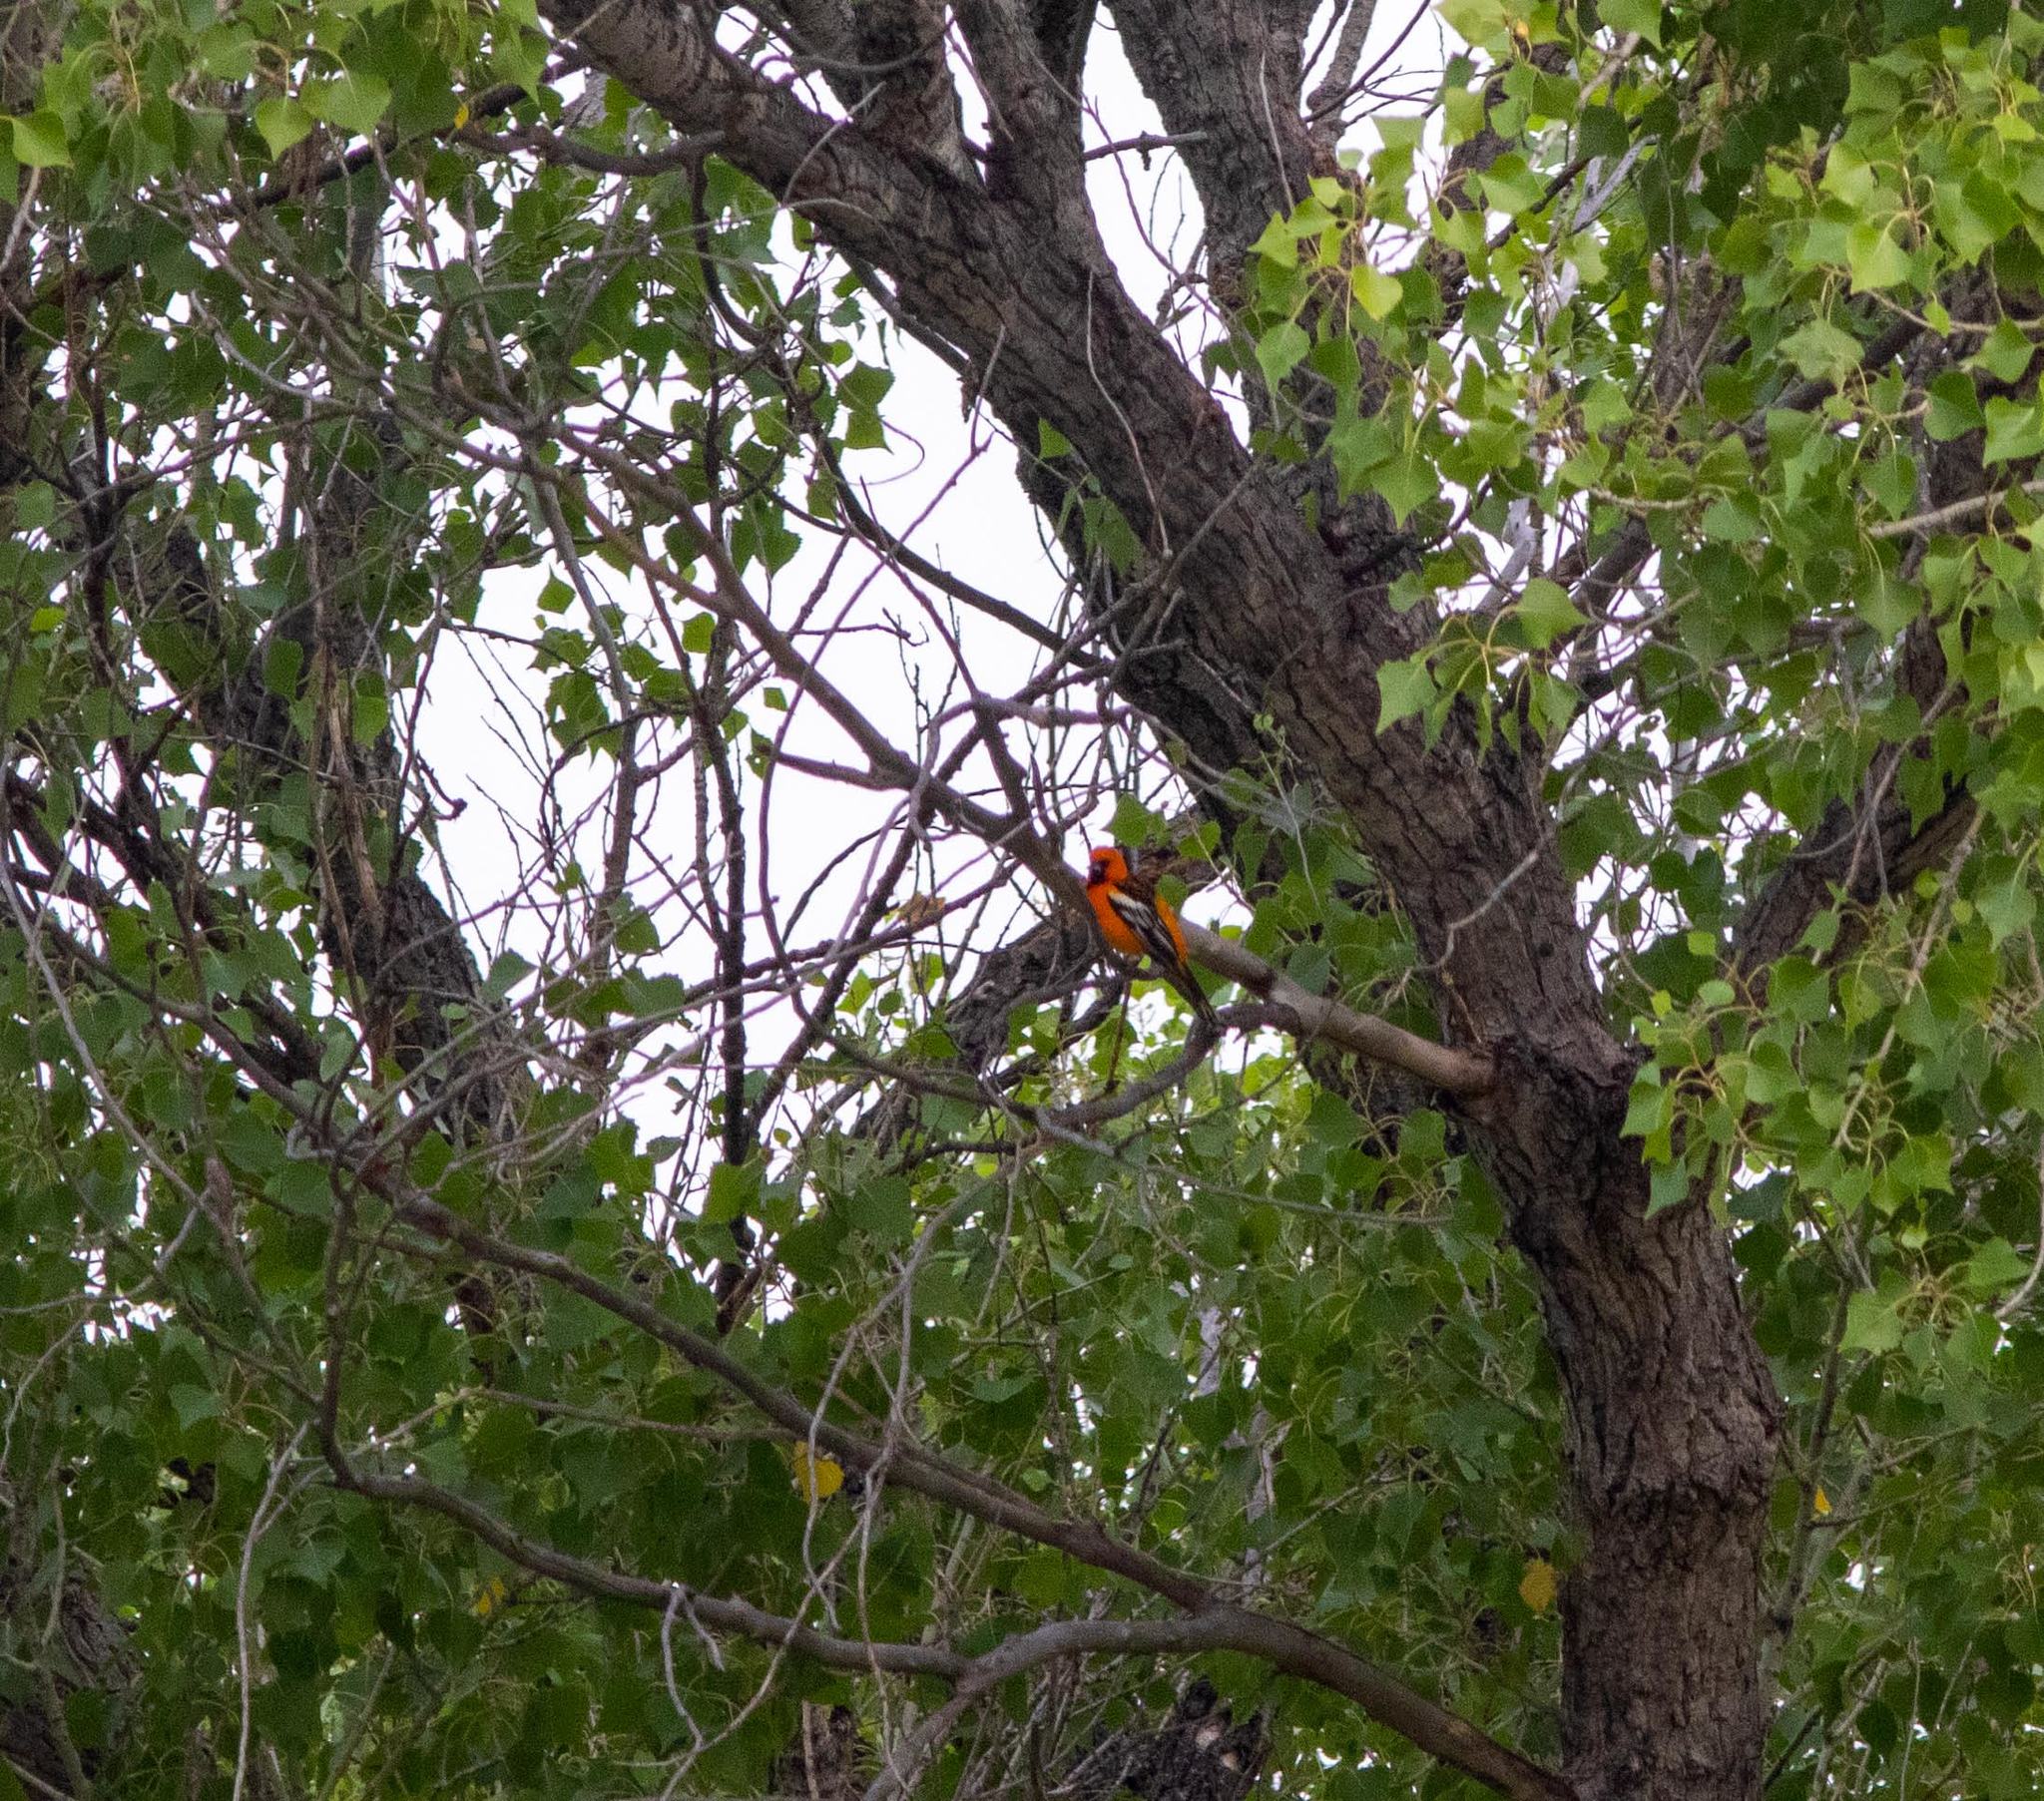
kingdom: Animalia
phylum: Chordata
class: Aves
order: Passeriformes
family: Icteridae
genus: Icterus
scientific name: Icterus pustulatus
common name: Streak-backed oriole
